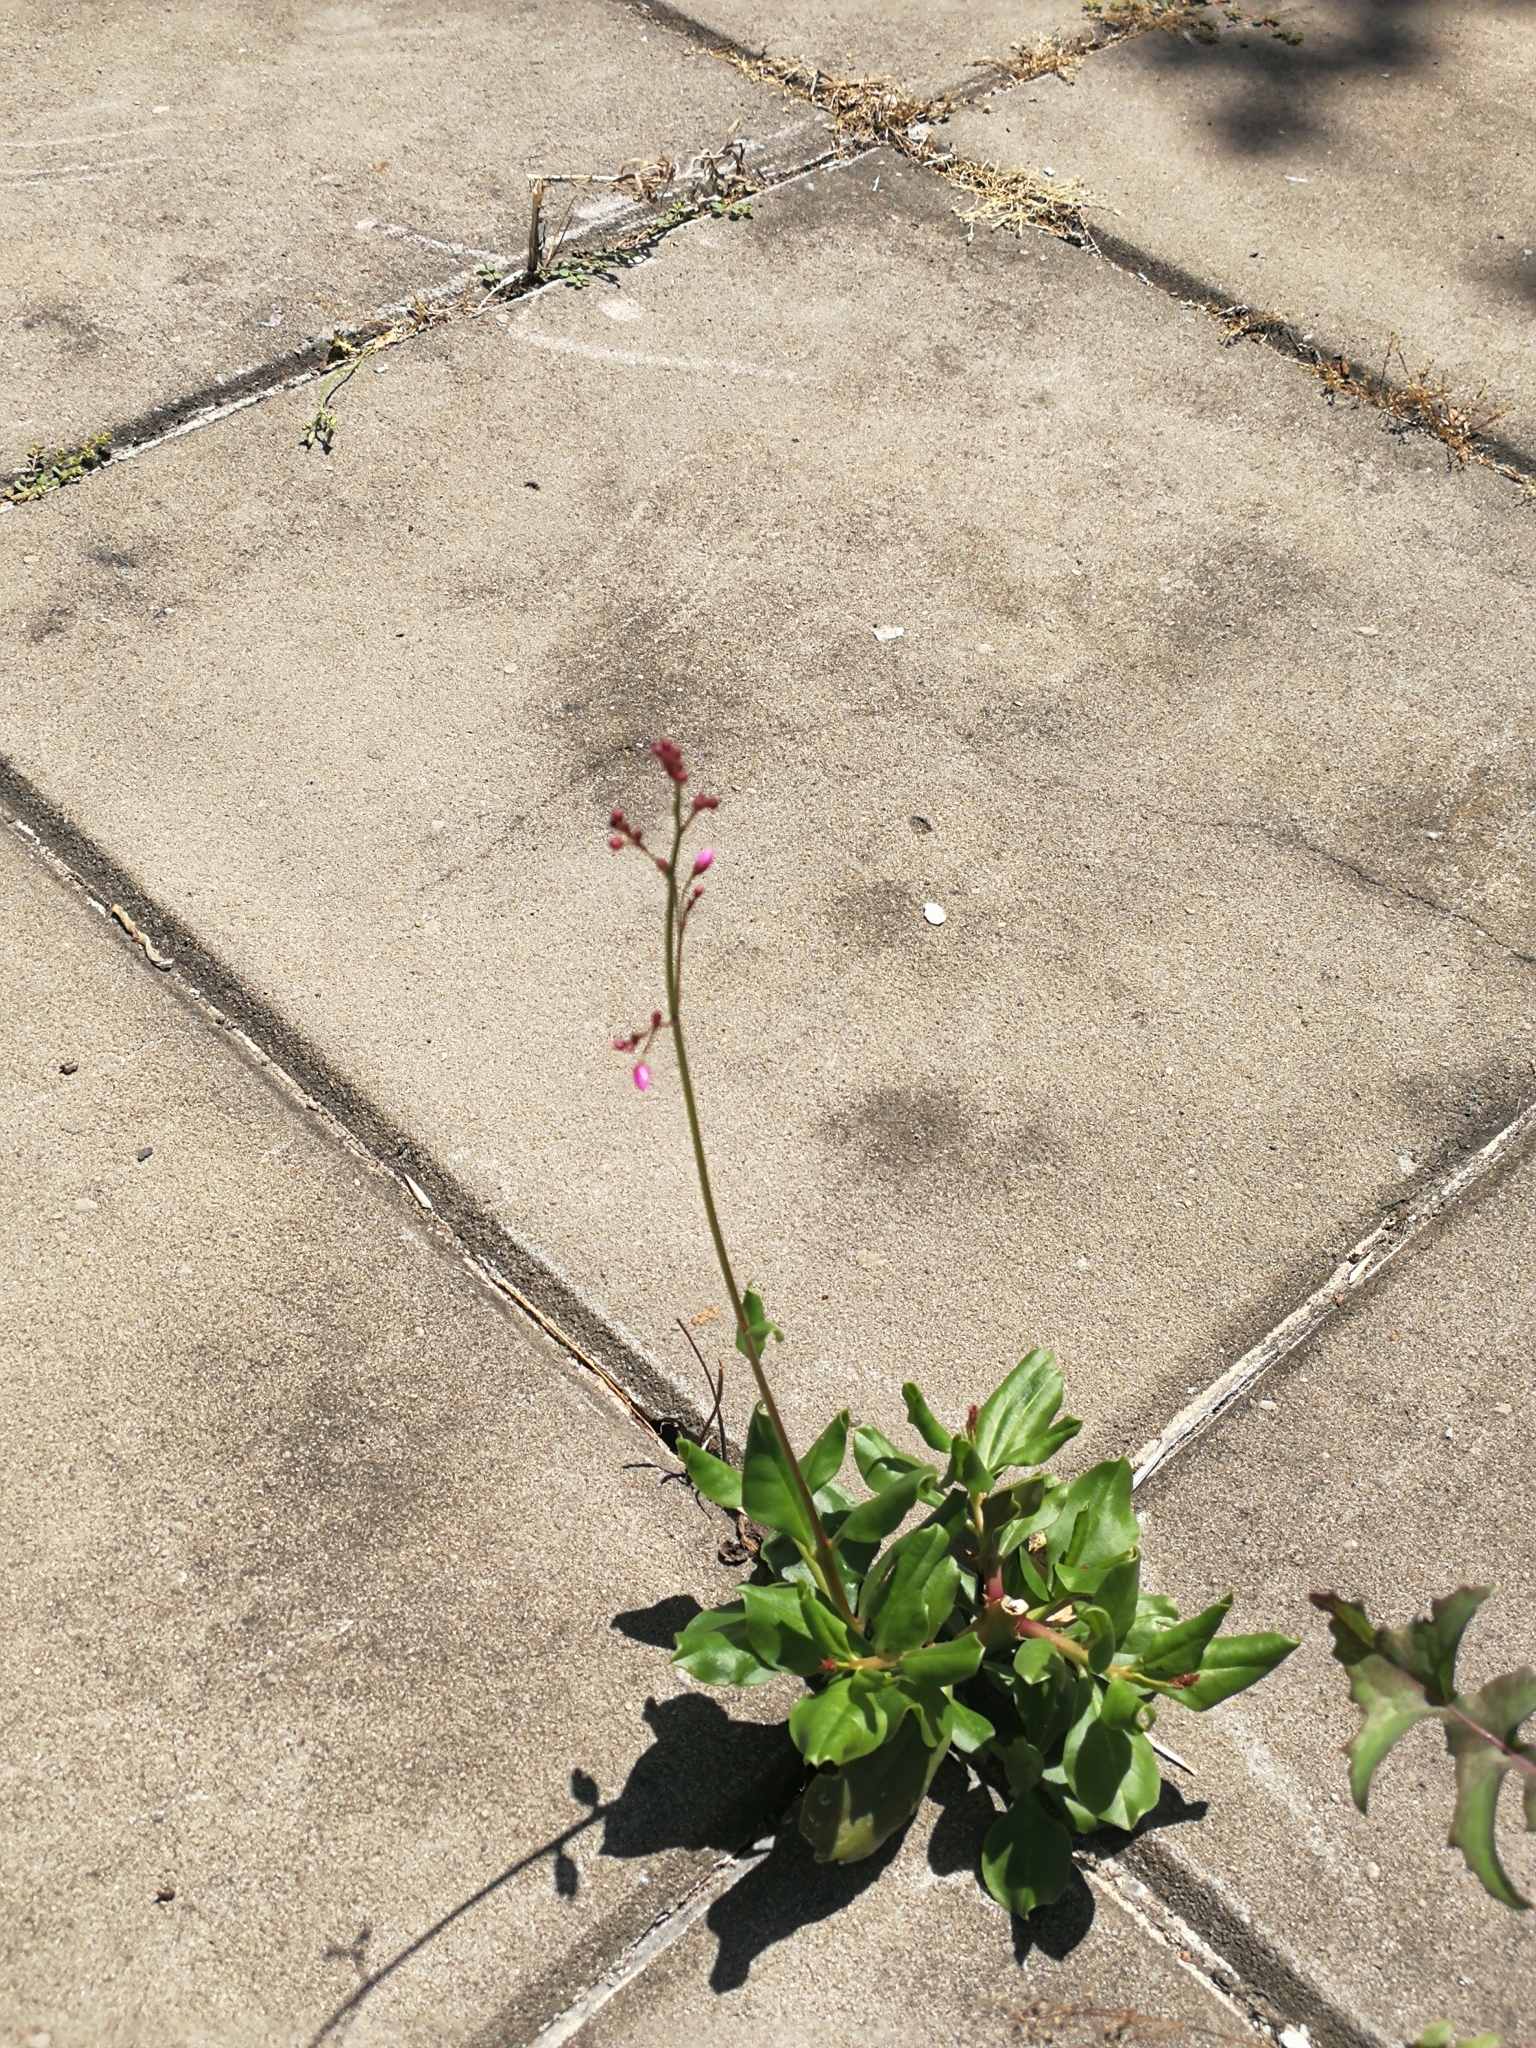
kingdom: Plantae
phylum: Tracheophyta
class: Magnoliopsida
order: Caryophyllales
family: Talinaceae
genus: Talinum
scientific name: Talinum paniculatum
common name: Jewels of opar
